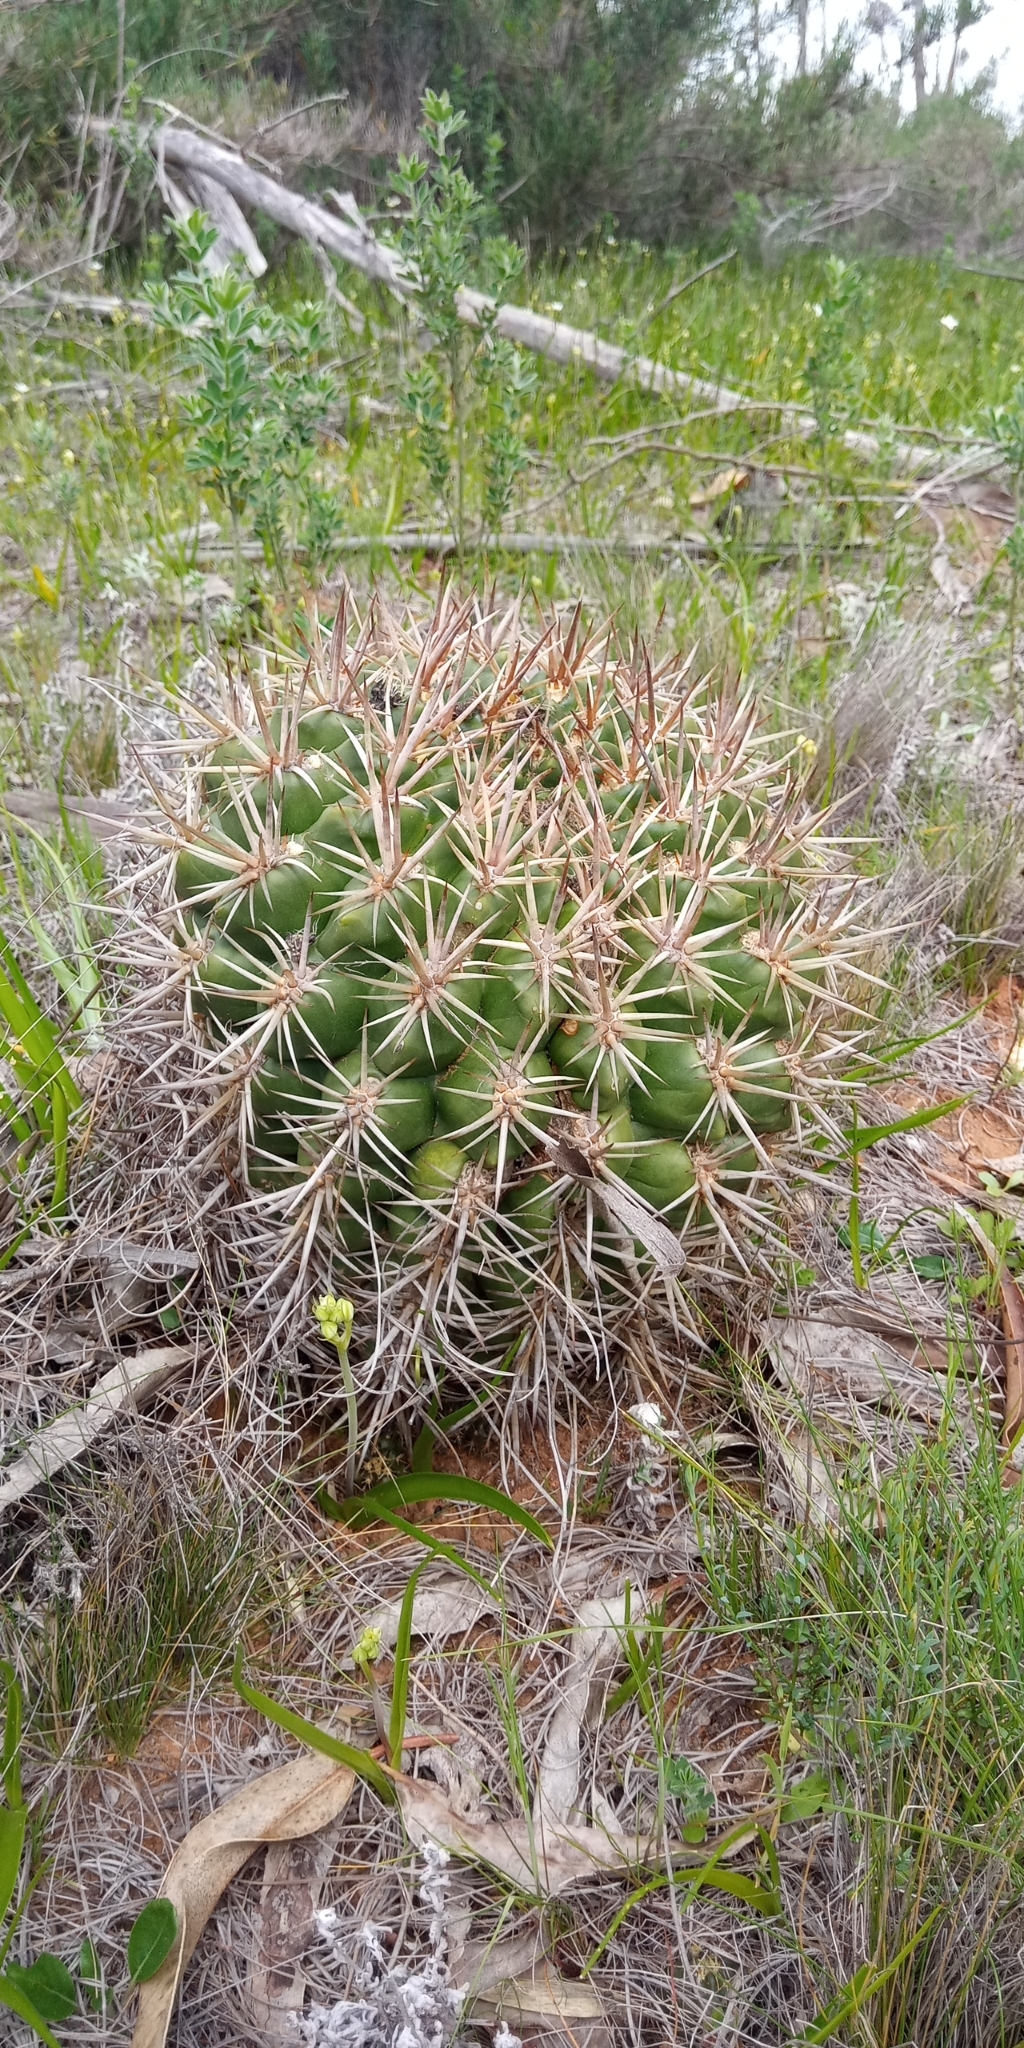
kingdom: Plantae
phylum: Tracheophyta
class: Magnoliopsida
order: Caryophyllales
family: Cactaceae
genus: Eriosyce
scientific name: Eriosyce
